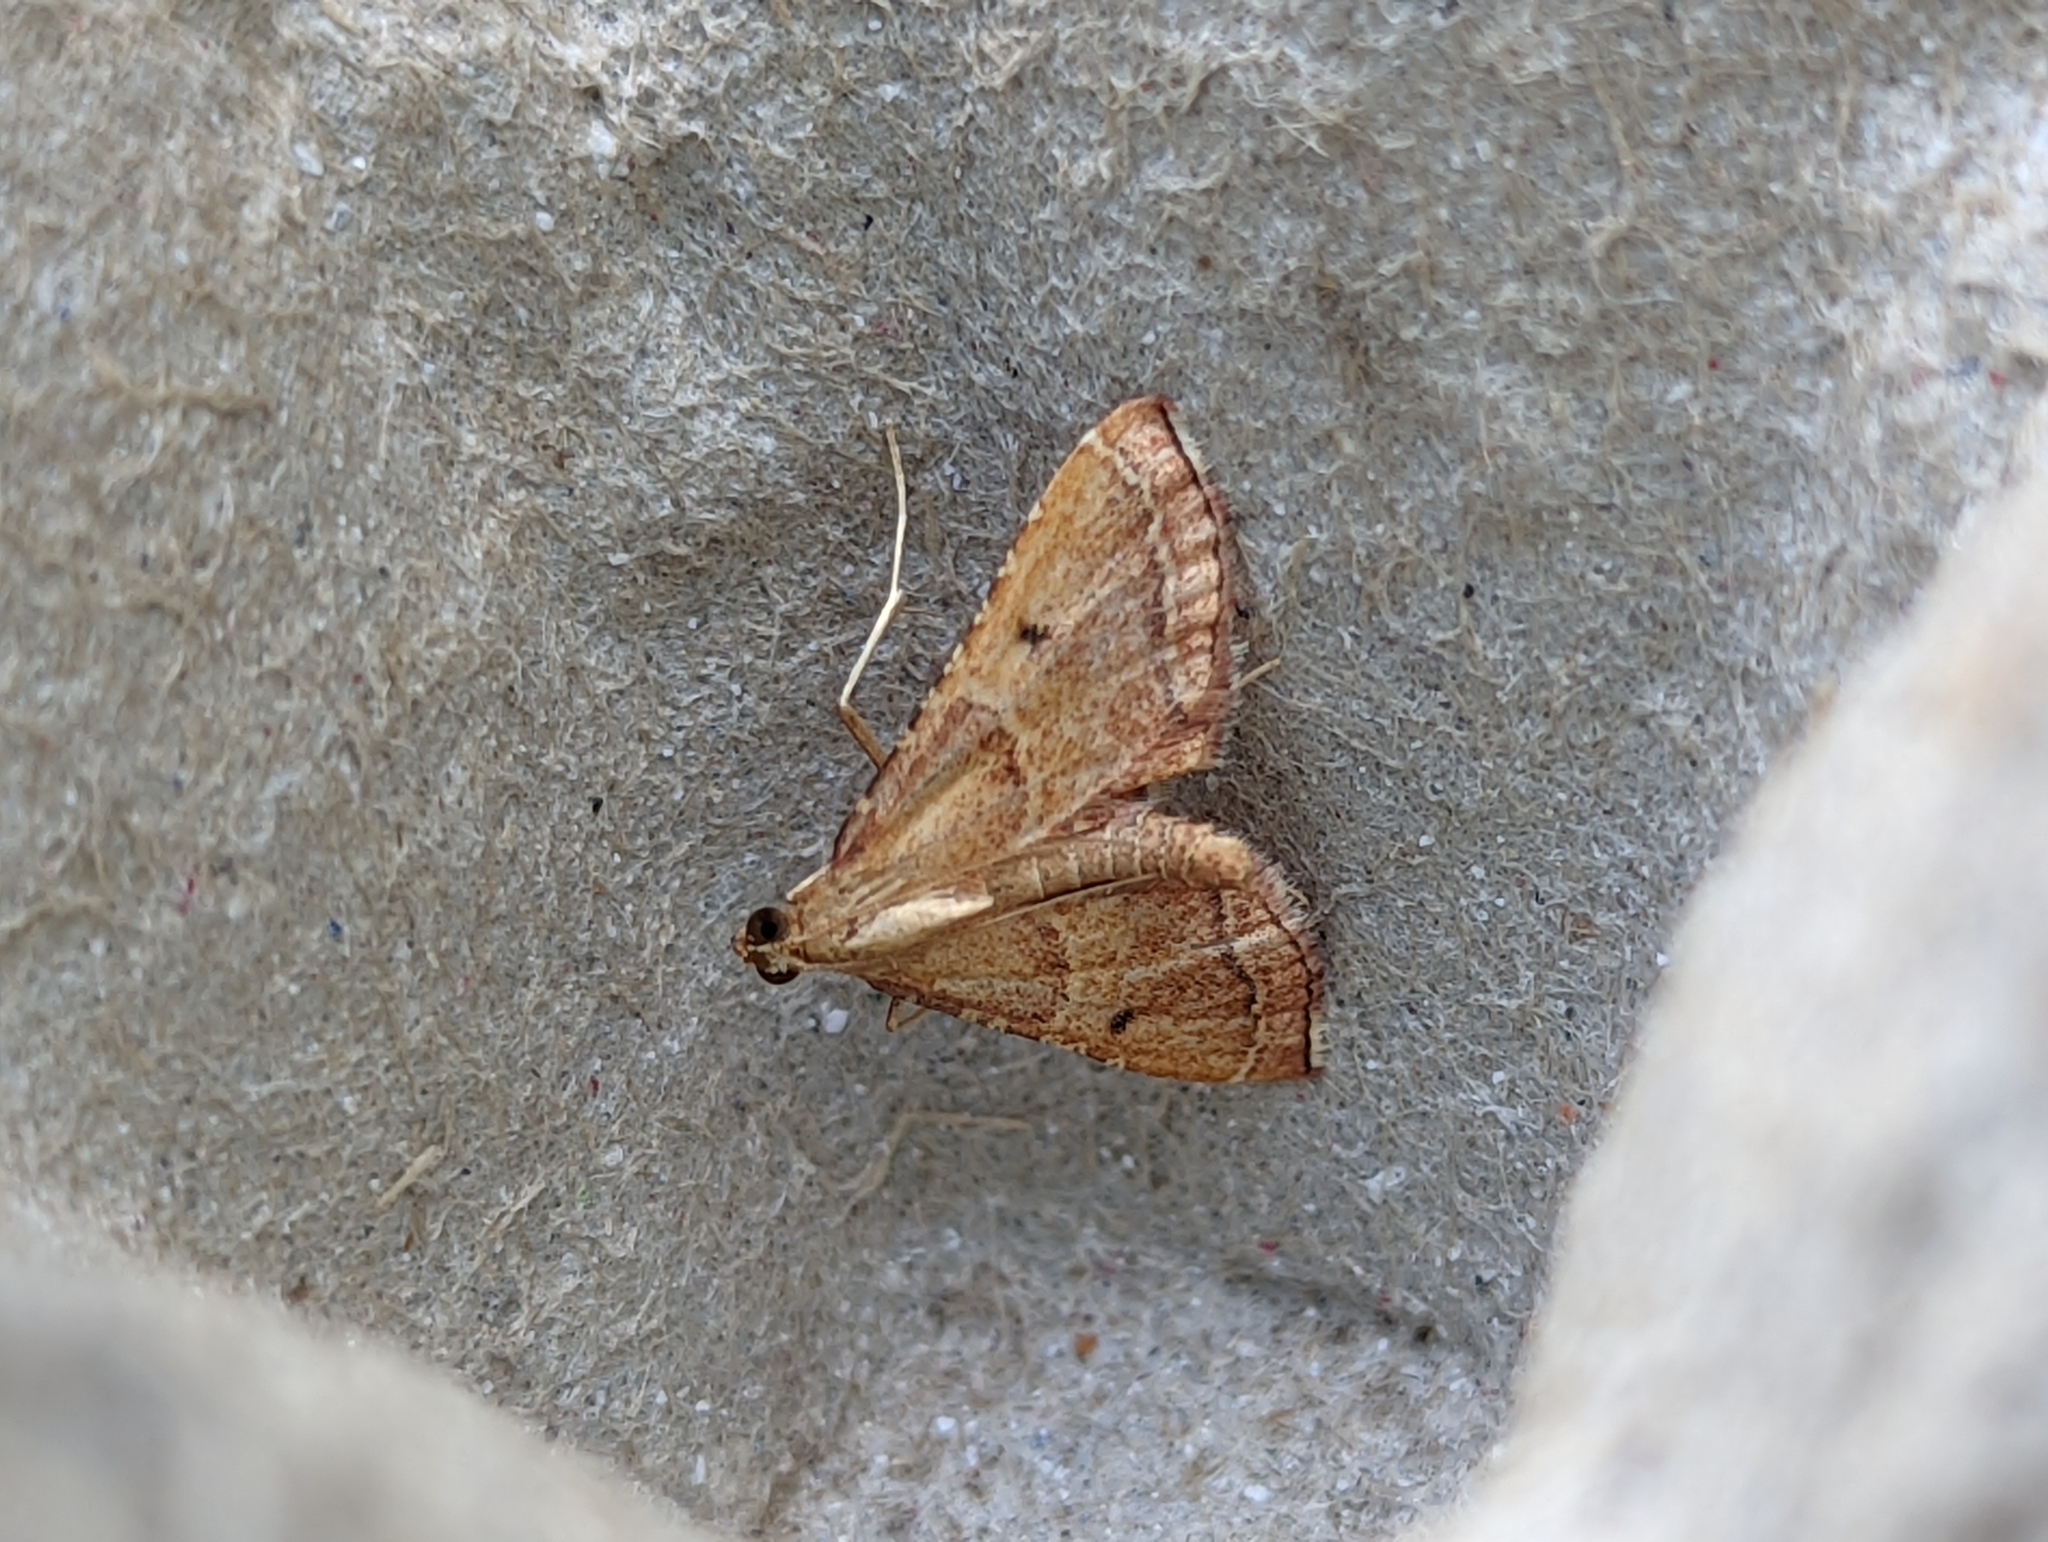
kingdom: Animalia
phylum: Arthropoda
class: Insecta
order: Lepidoptera
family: Pyralidae
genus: Endotricha
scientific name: Endotricha flammealis
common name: Rosy tabby
